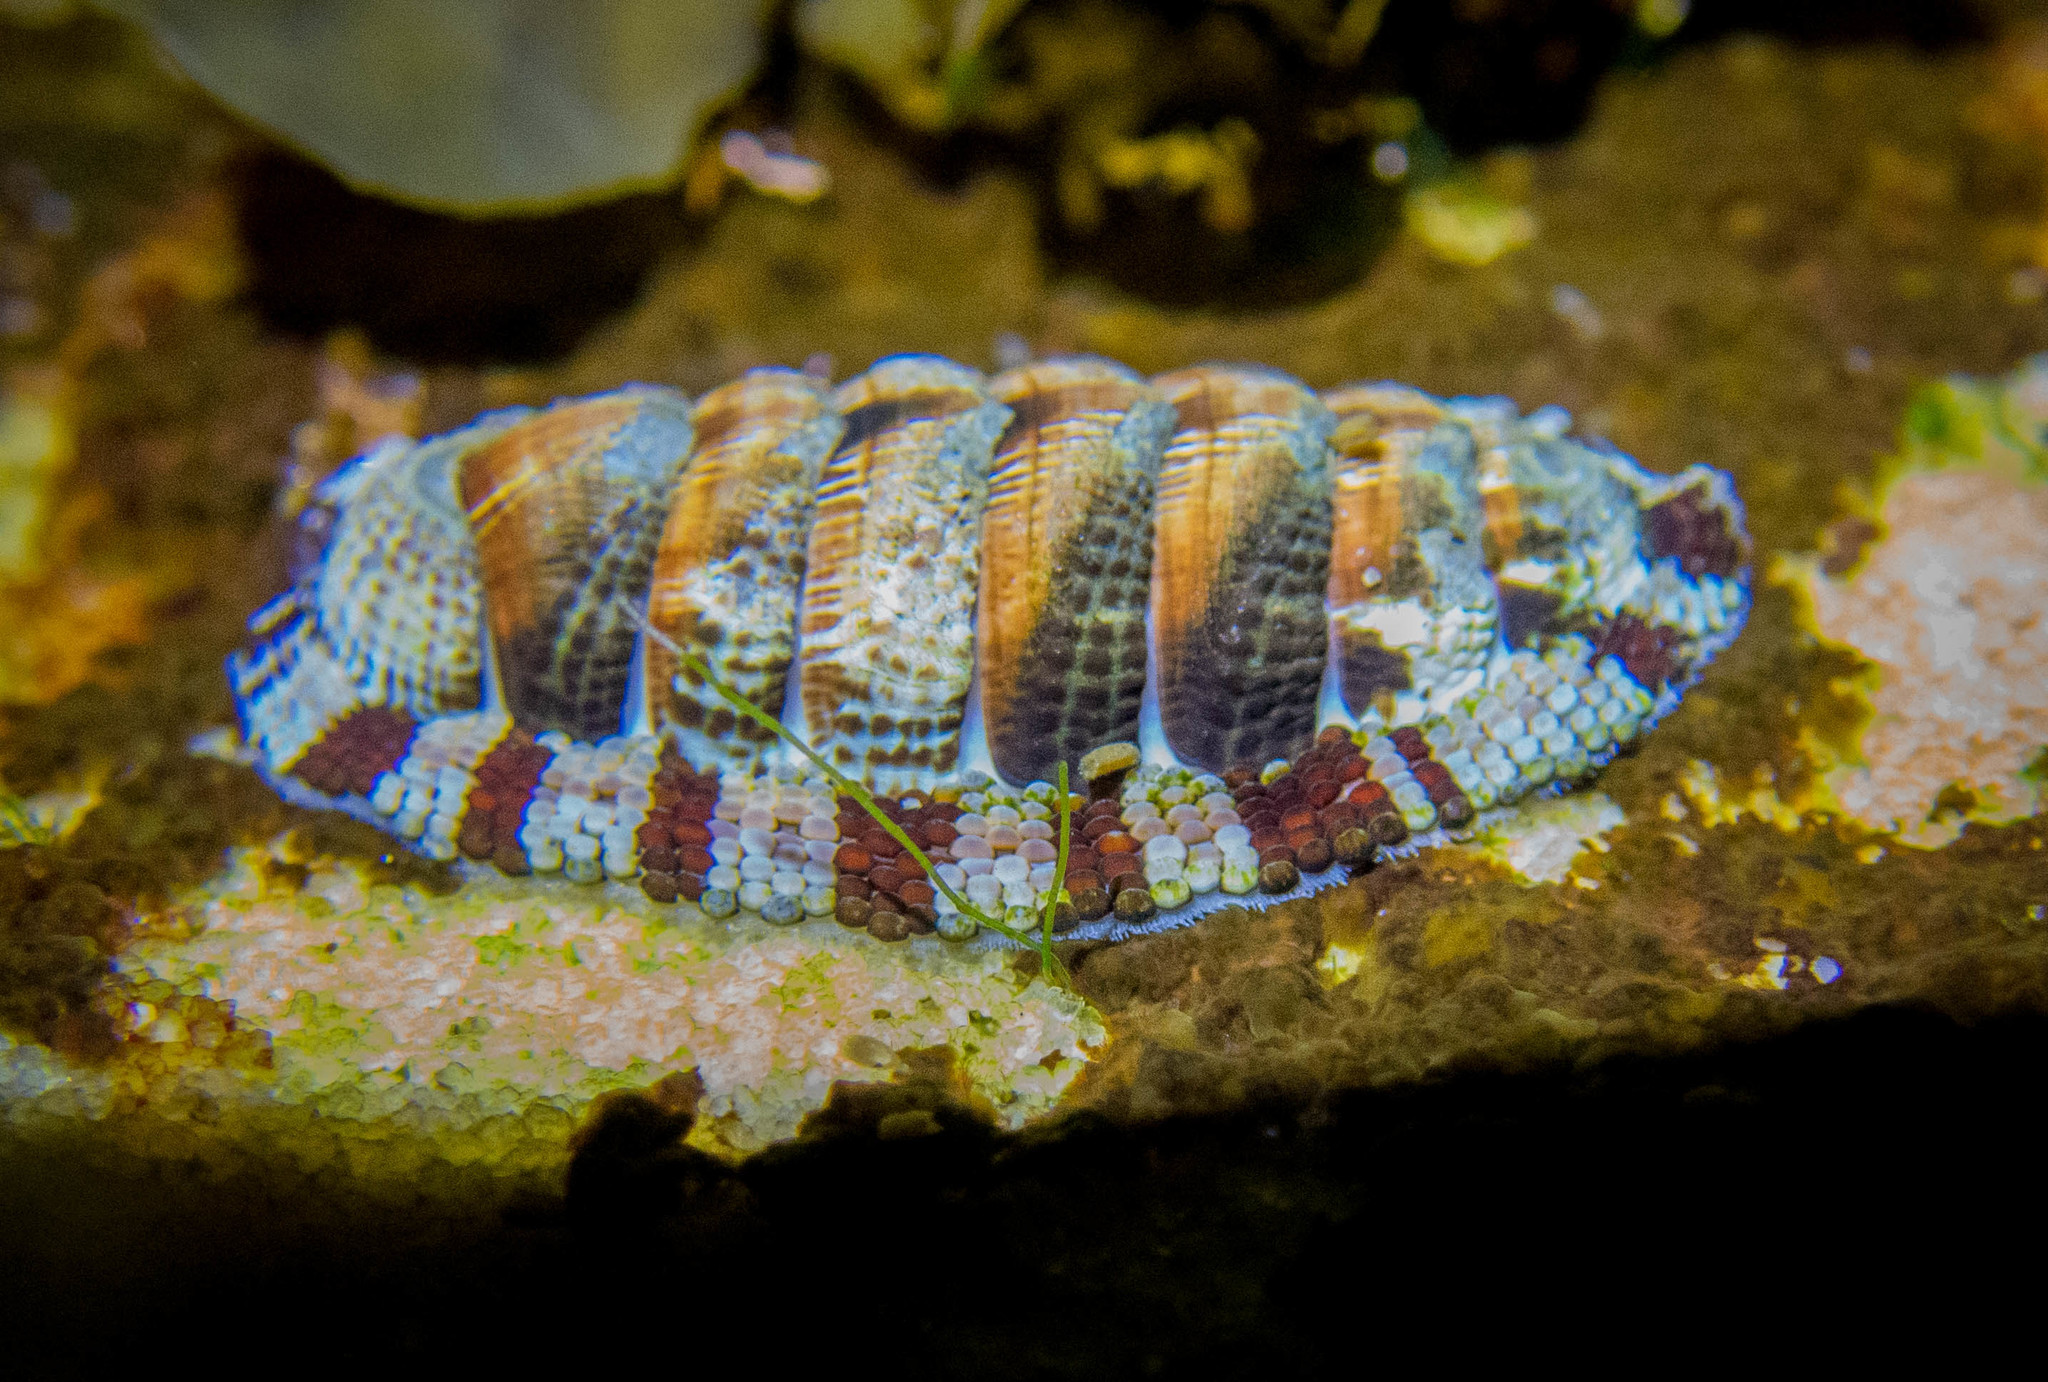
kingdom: Animalia
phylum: Mollusca
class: Polyplacophora
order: Chitonida
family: Chitonidae
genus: Sypharochiton
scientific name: Sypharochiton pelliserpentis
